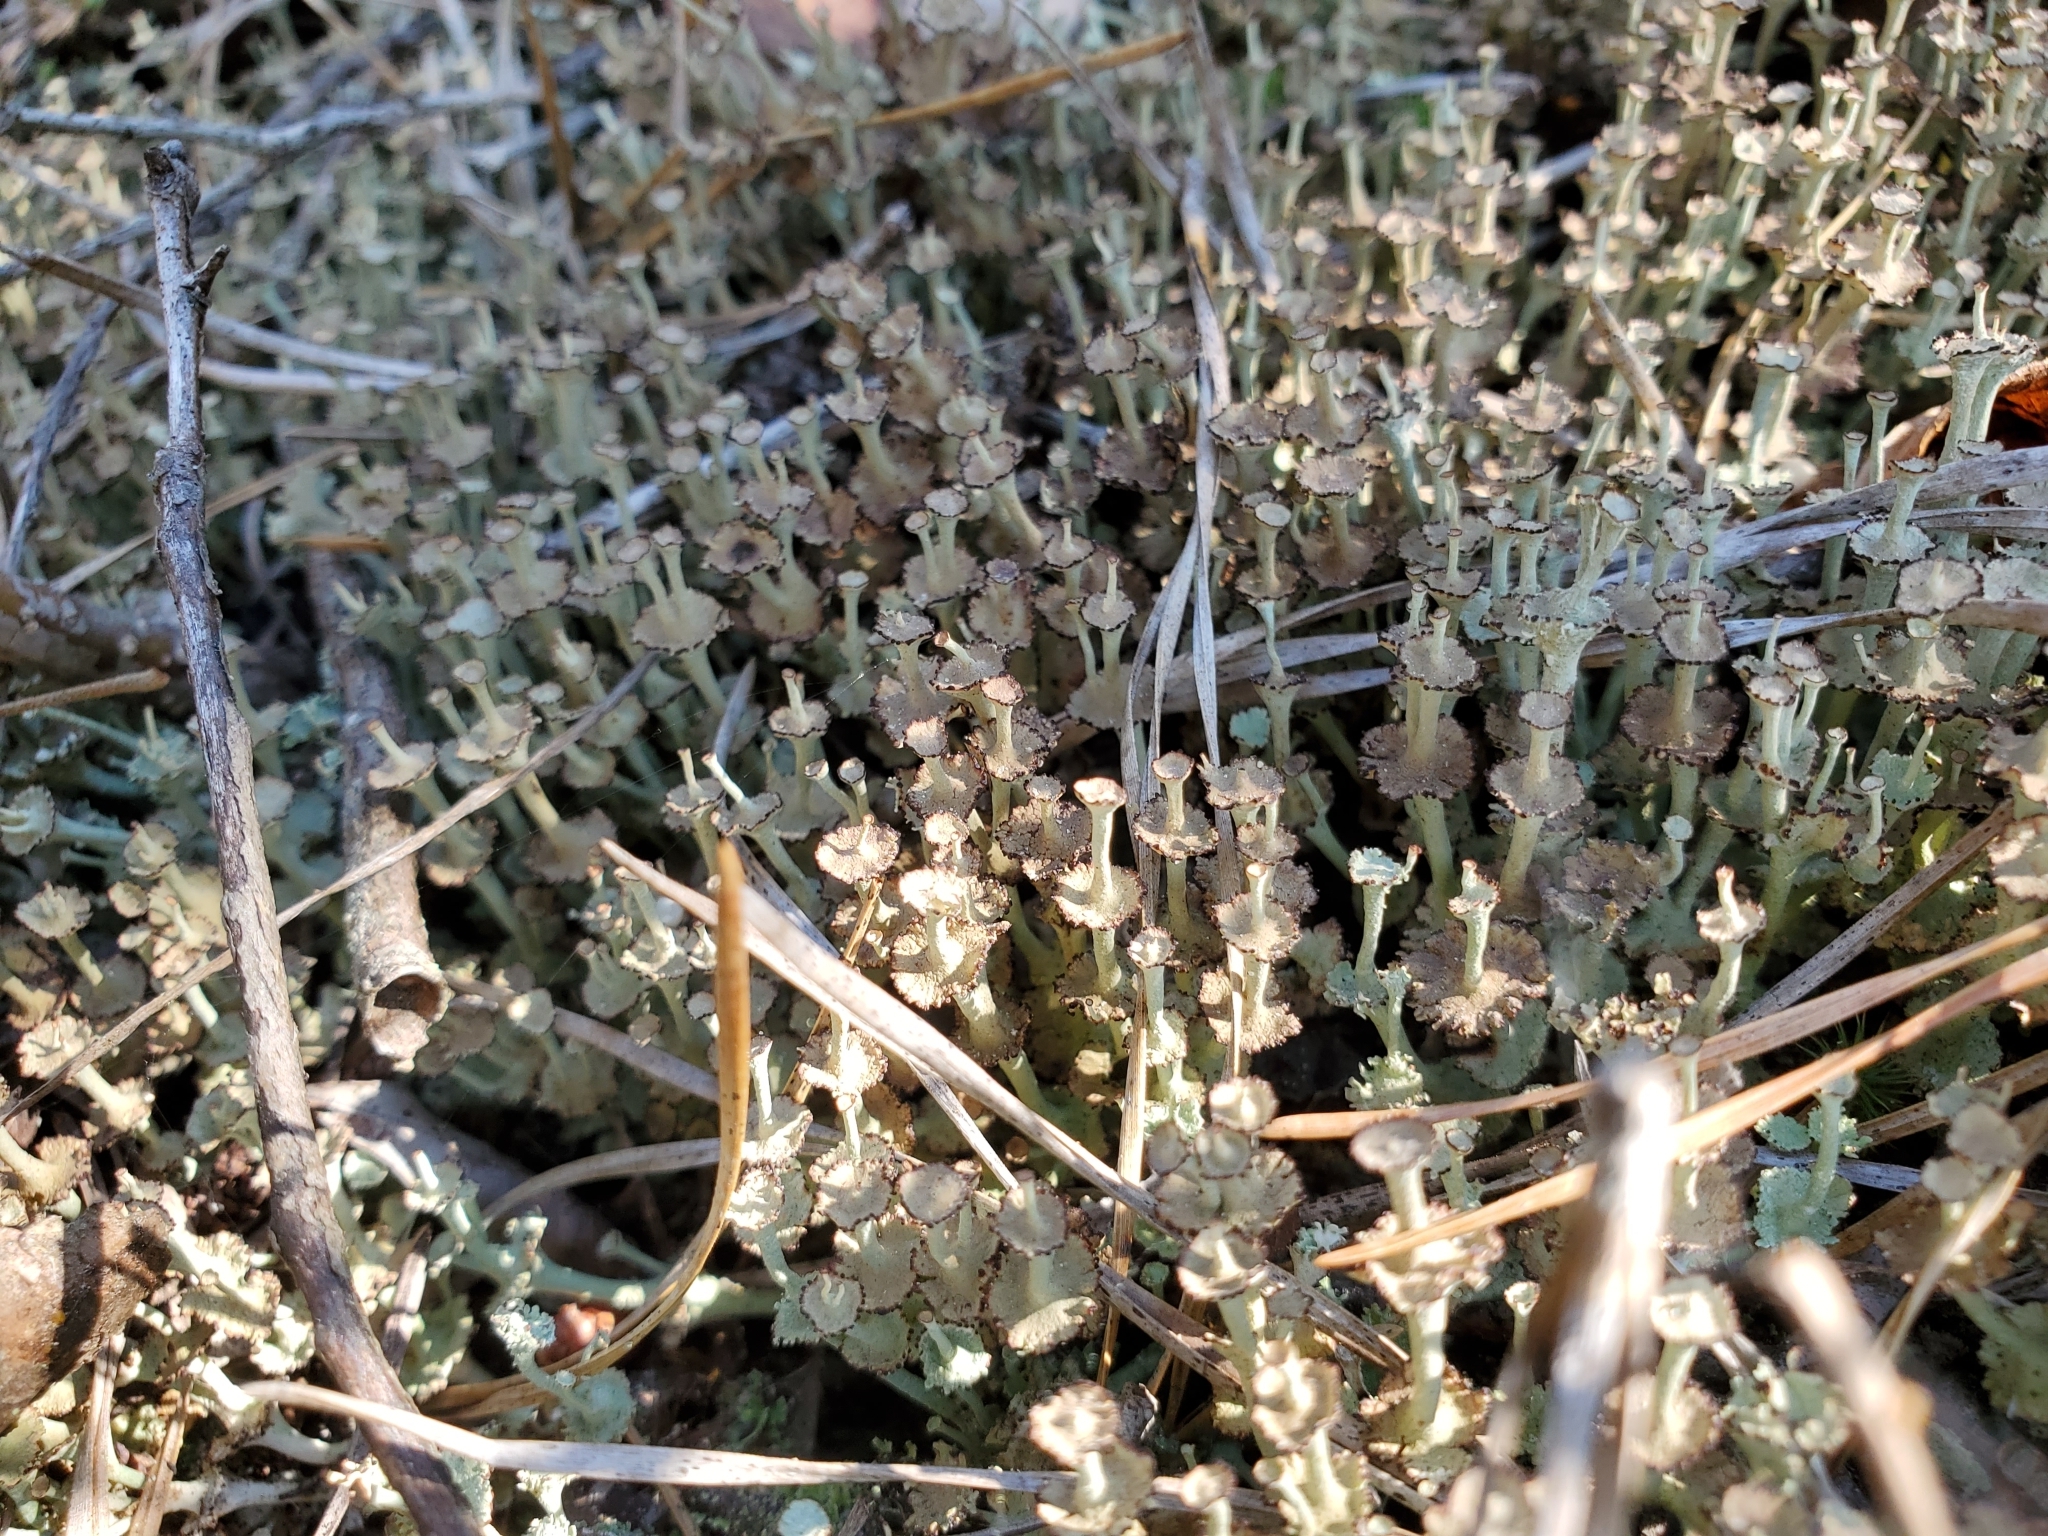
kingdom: Fungi
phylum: Ascomycota
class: Lecanoromycetes
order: Lecanorales
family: Cladoniaceae
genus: Cladonia
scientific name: Cladonia cervicornis
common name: Browned pixie-cup lichen
